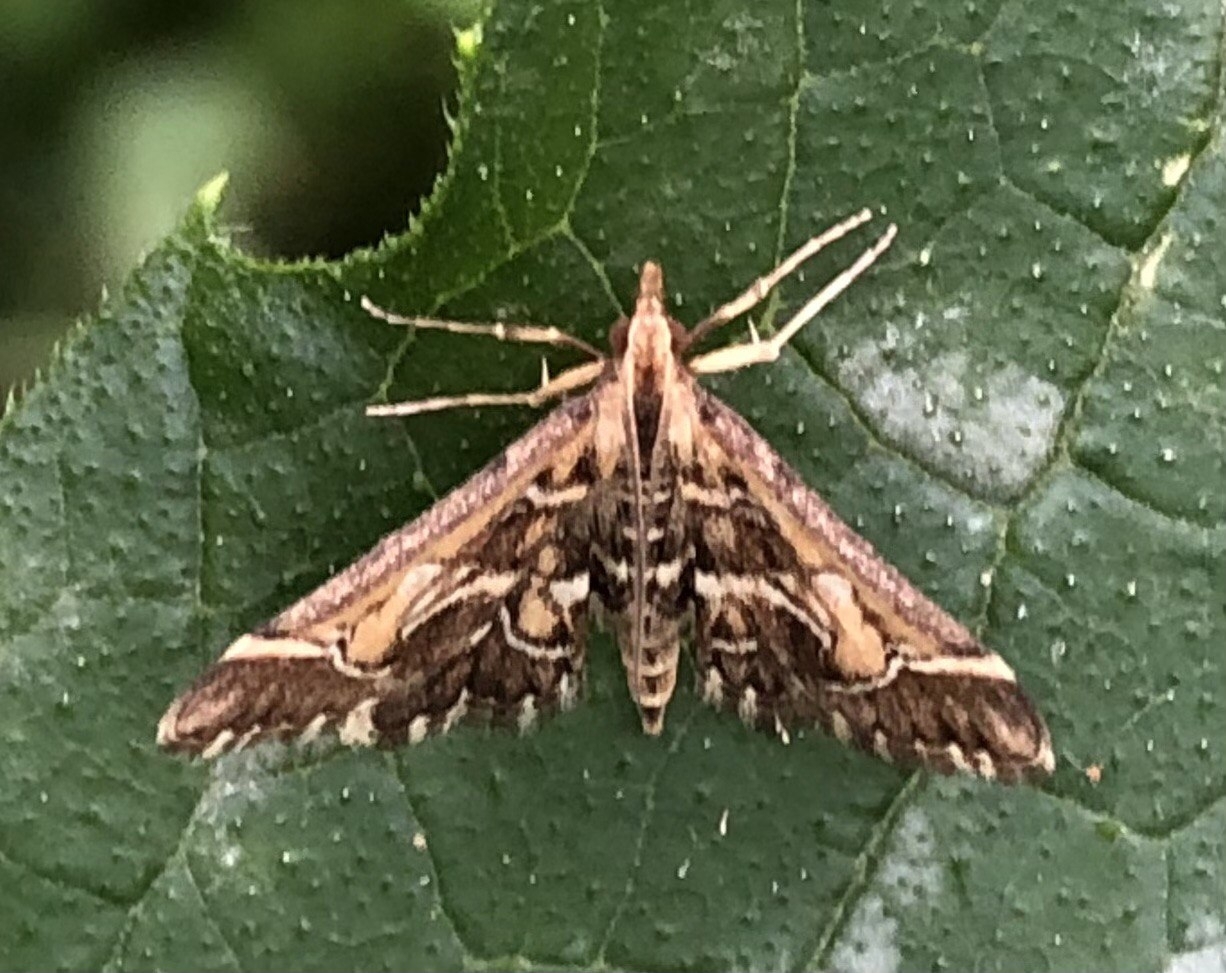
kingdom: Animalia
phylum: Arthropoda
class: Insecta
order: Lepidoptera
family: Crambidae
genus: Diasemia
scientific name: Diasemia reticularis
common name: Lettered china-mark
